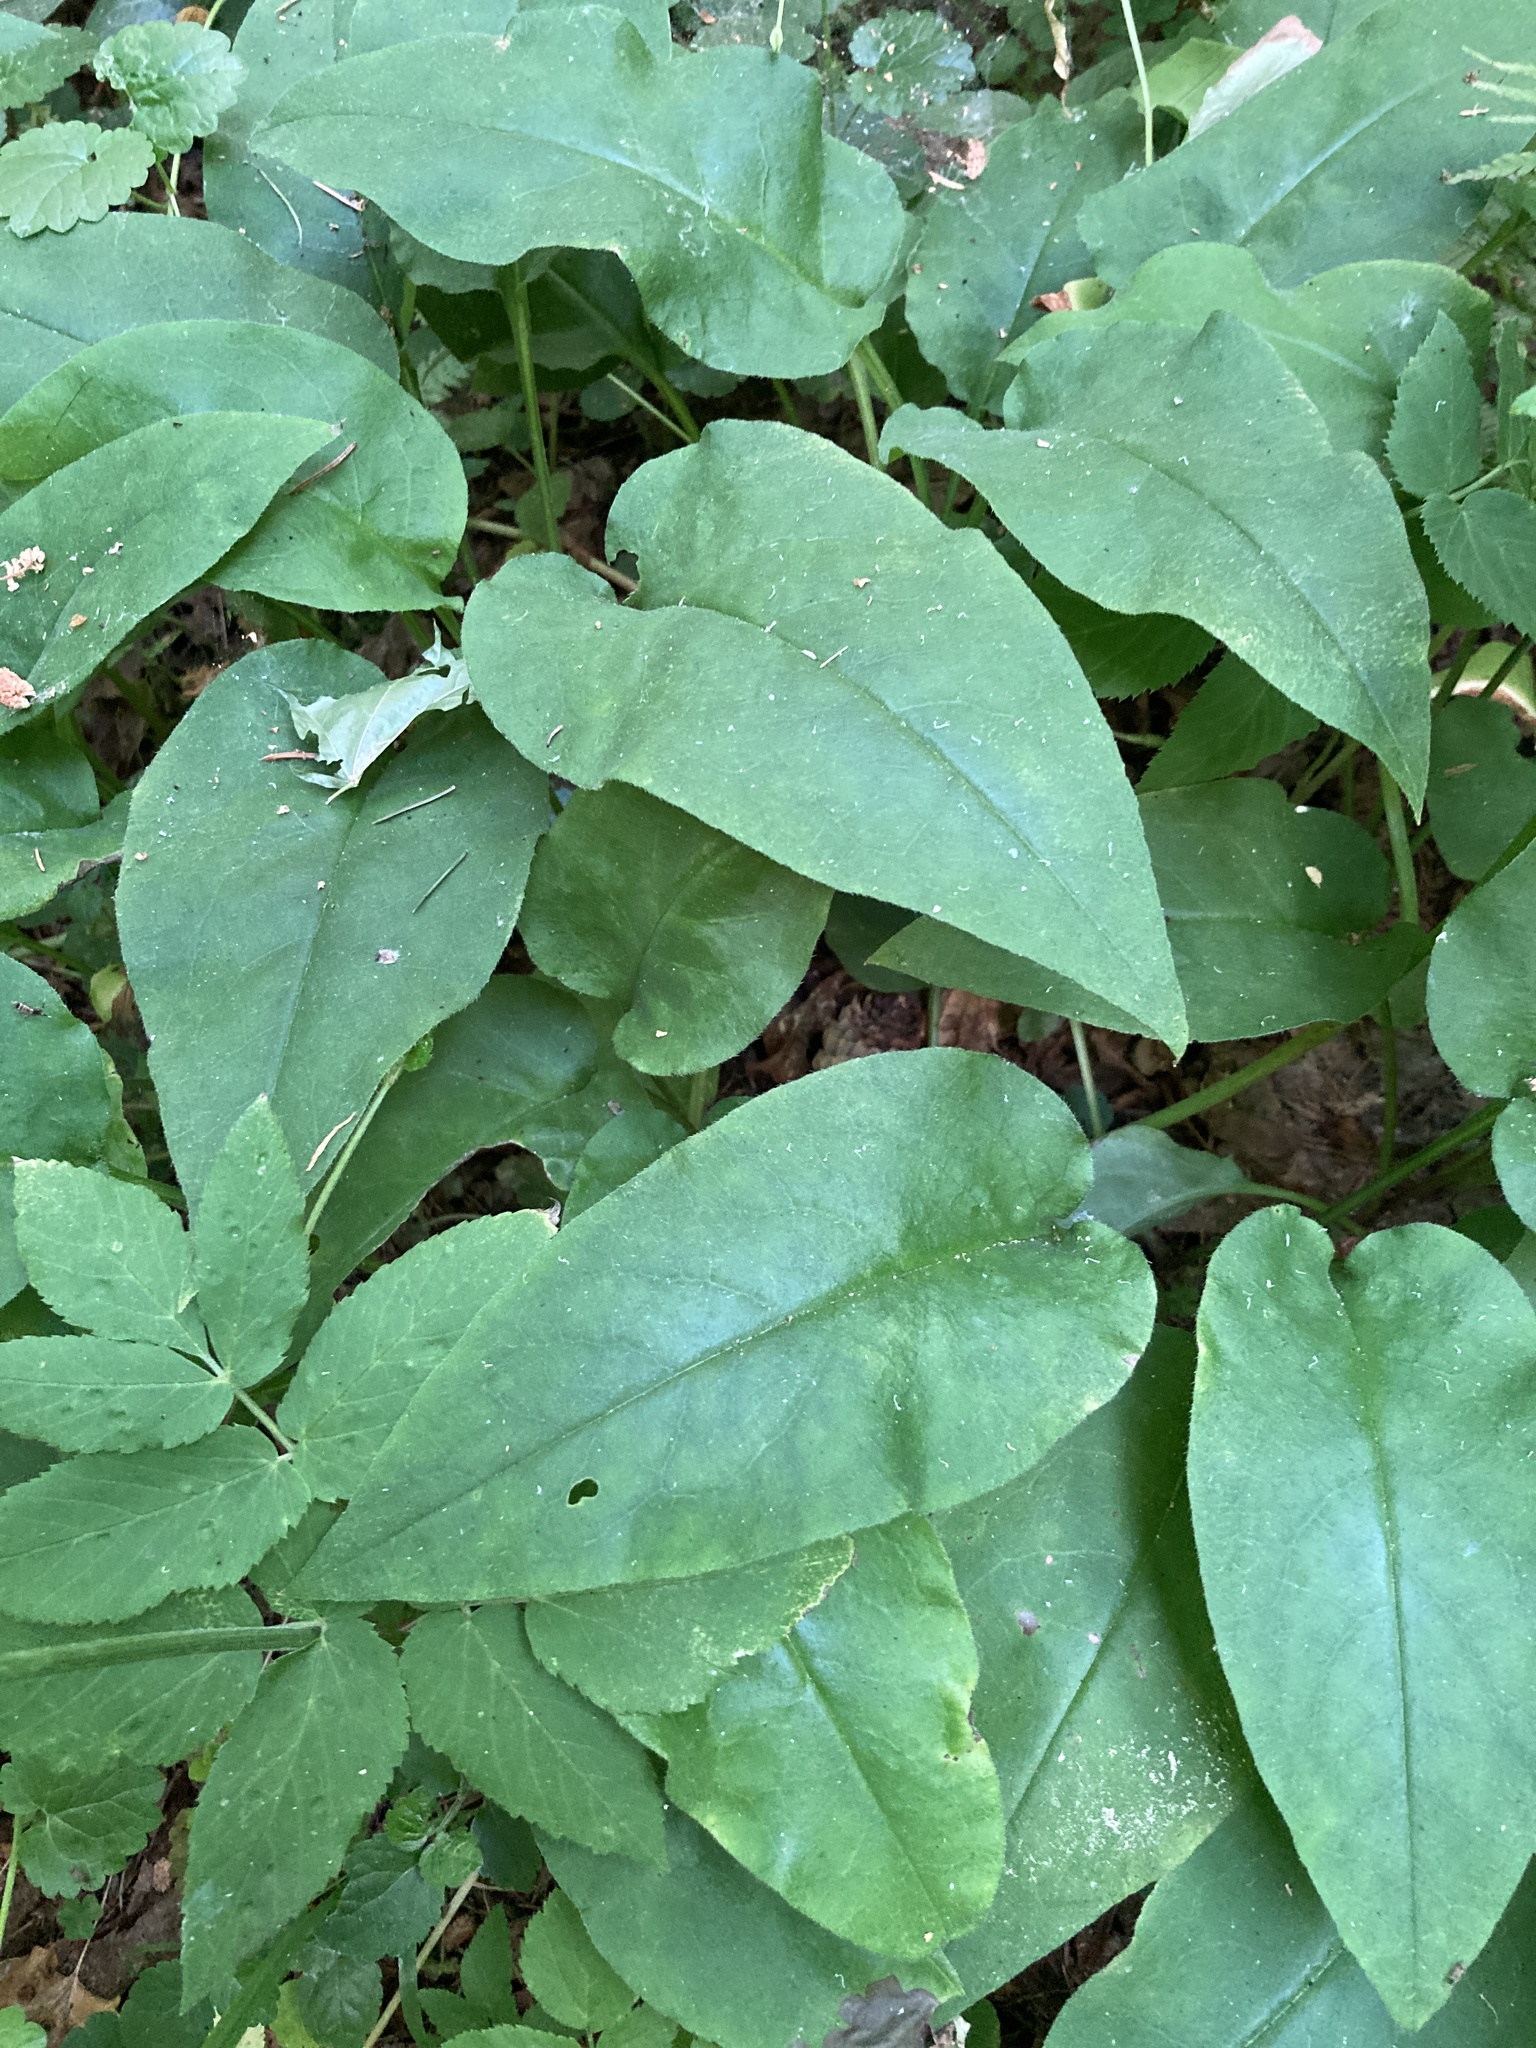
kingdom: Plantae
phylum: Tracheophyta
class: Magnoliopsida
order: Boraginales
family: Boraginaceae
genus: Pulmonaria
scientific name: Pulmonaria obscura
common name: Suffolk lungwort
